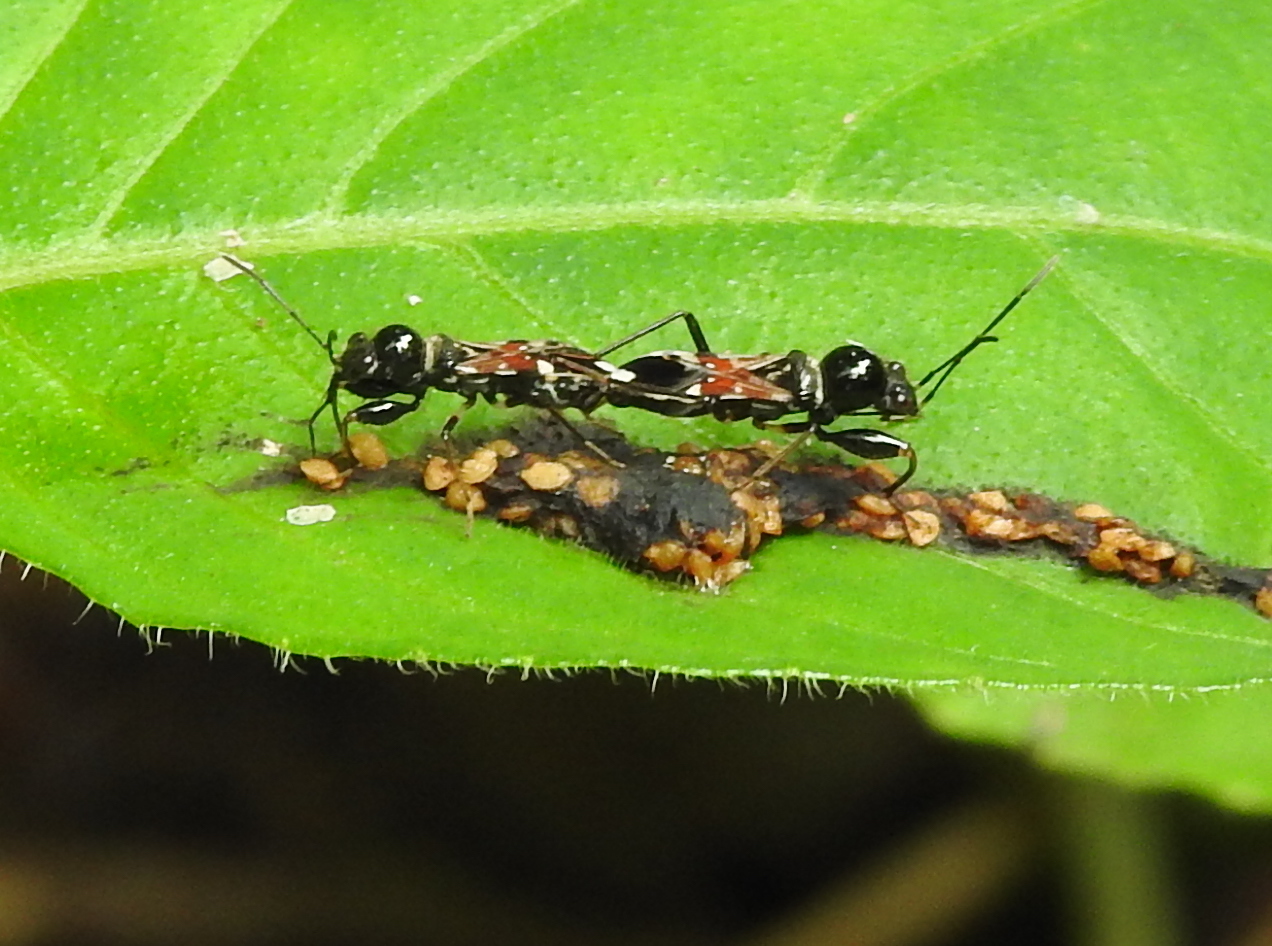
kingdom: Animalia
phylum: Arthropoda
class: Insecta
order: Hemiptera
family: Rhyparochromidae
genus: Caridops
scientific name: Caridops globicollis
